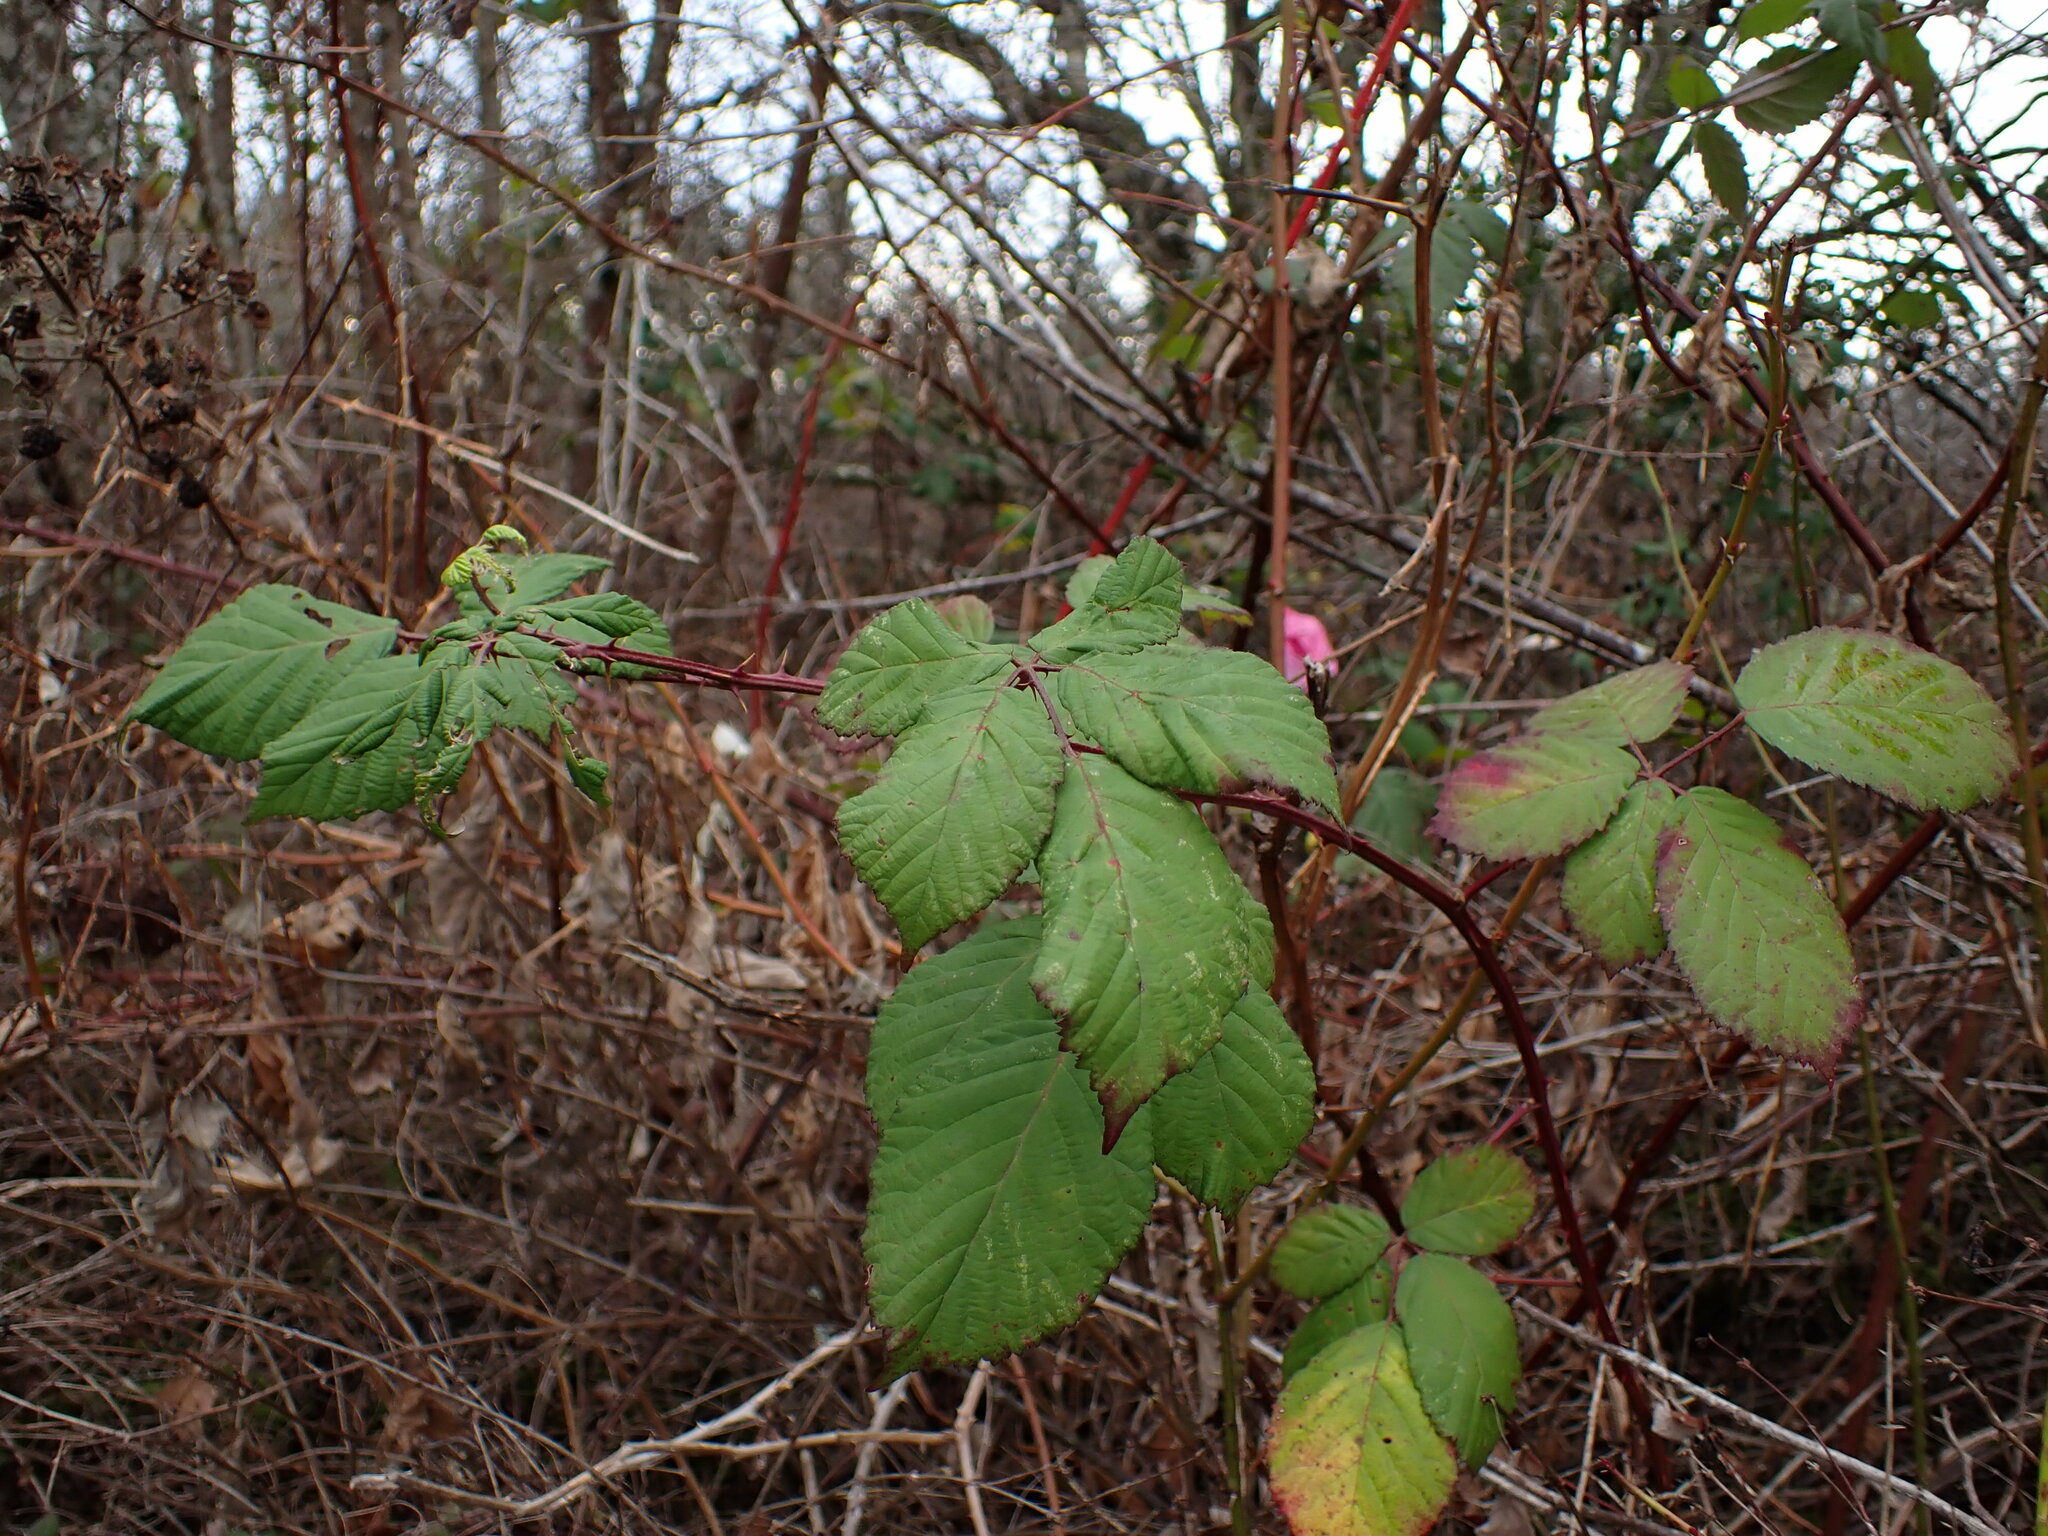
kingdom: Plantae
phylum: Tracheophyta
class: Magnoliopsida
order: Rosales
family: Rosaceae
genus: Rubus
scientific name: Rubus ursinus
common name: Pacific blackberry
